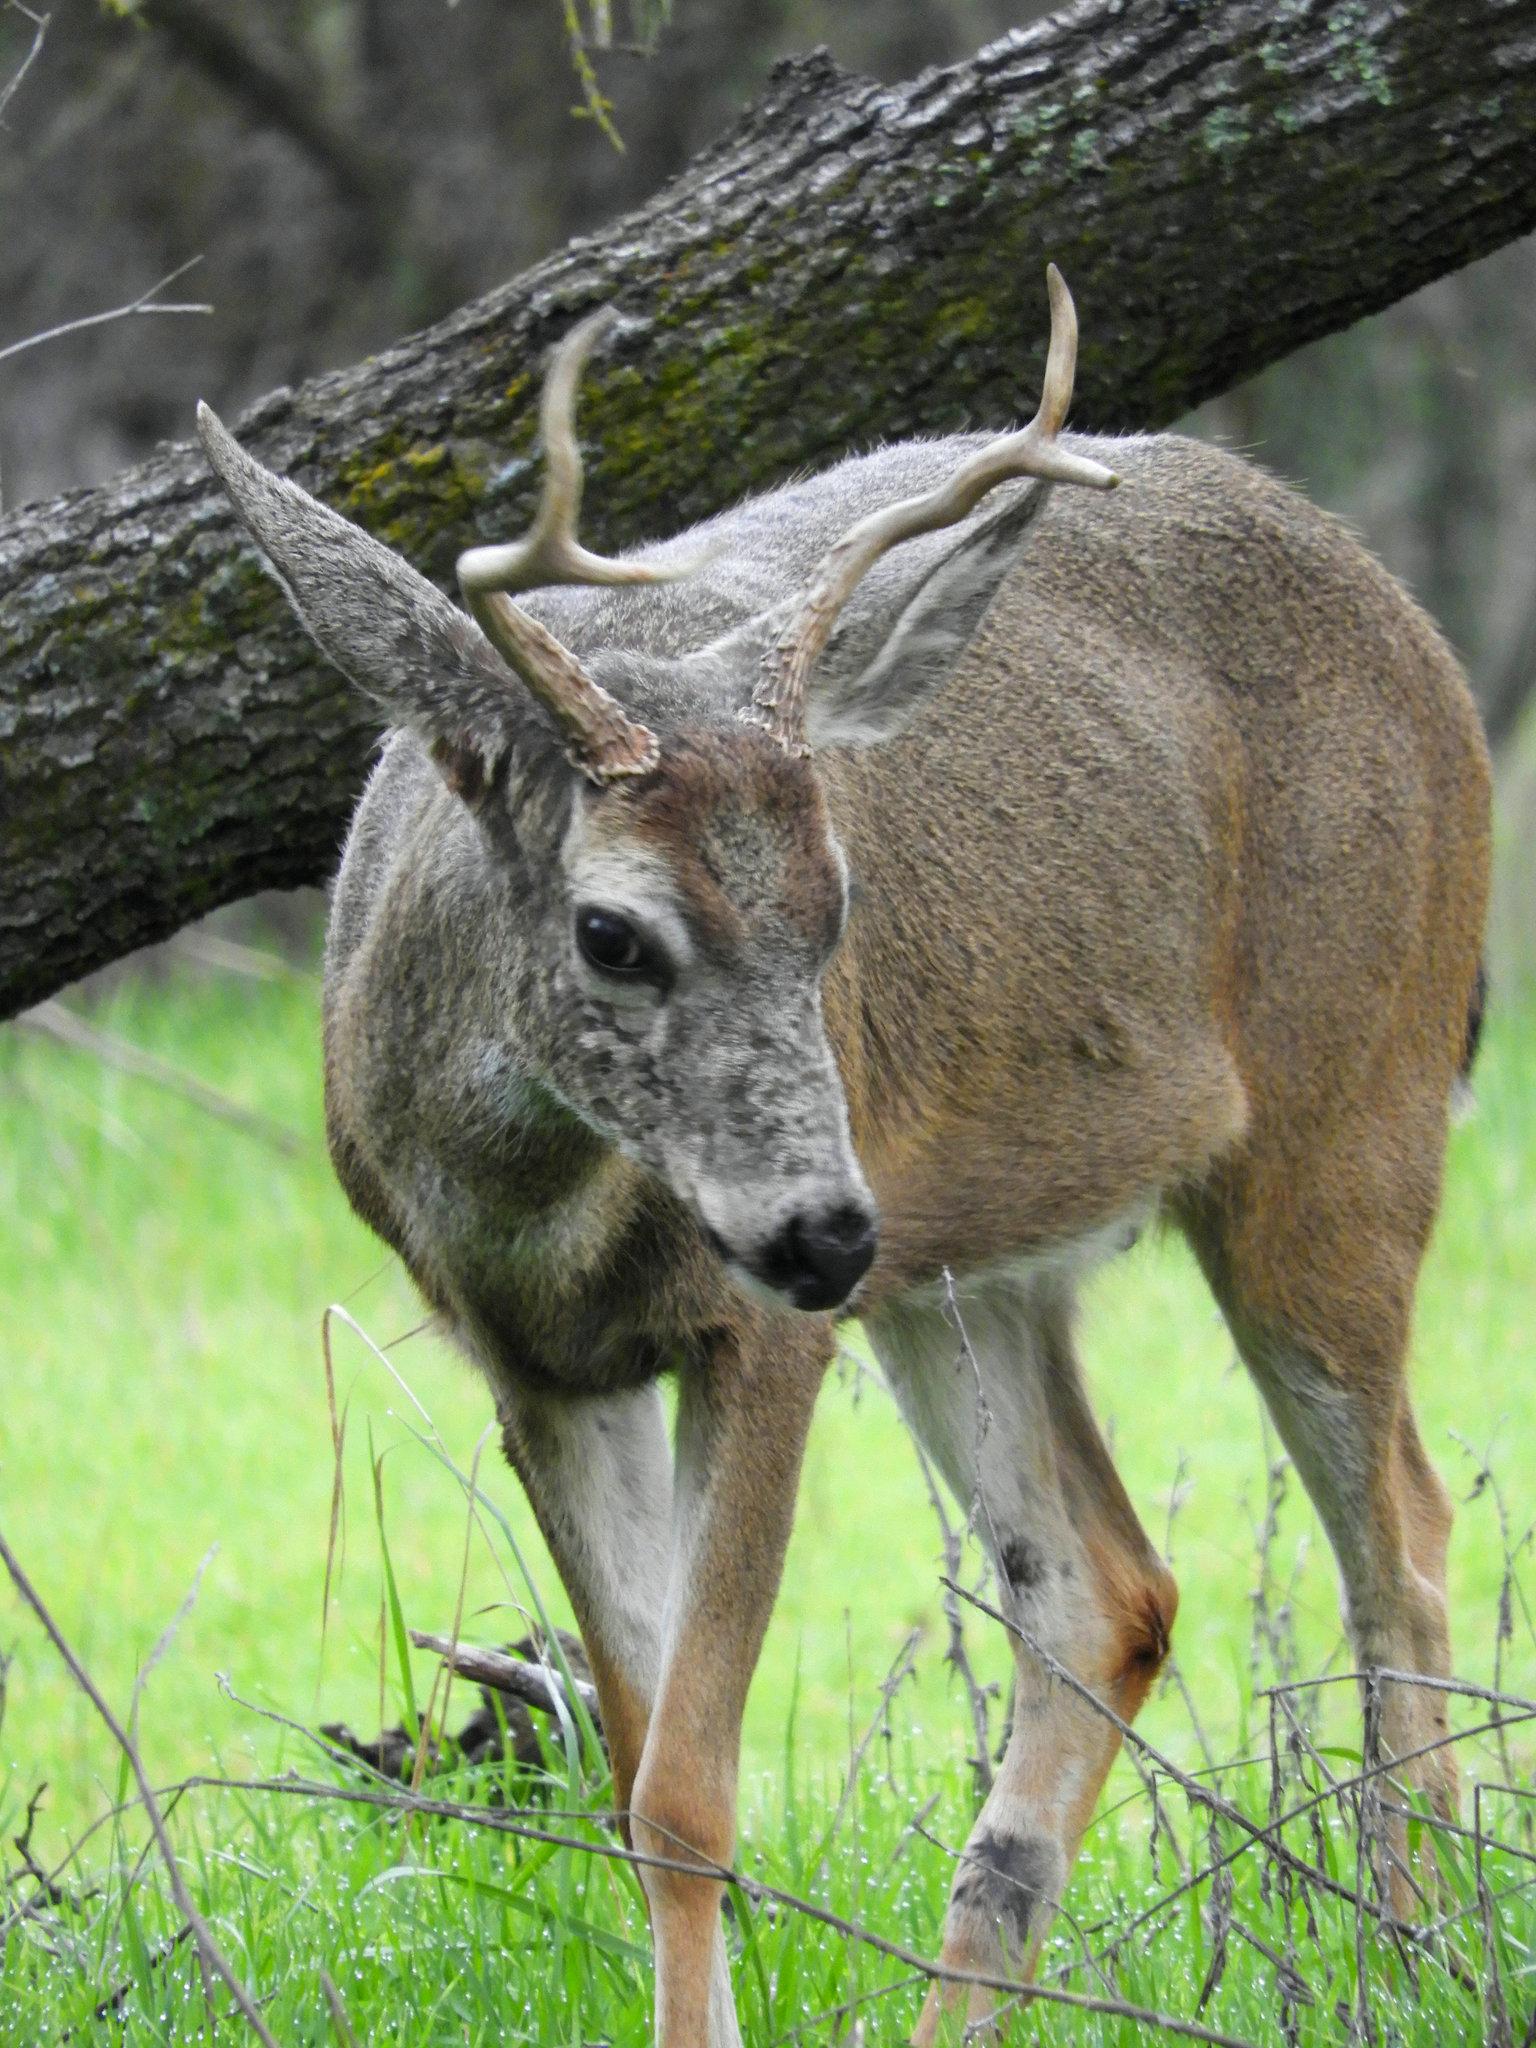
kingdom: Animalia
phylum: Chordata
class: Mammalia
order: Artiodactyla
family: Cervidae
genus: Odocoileus
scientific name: Odocoileus hemionus
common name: Mule deer
